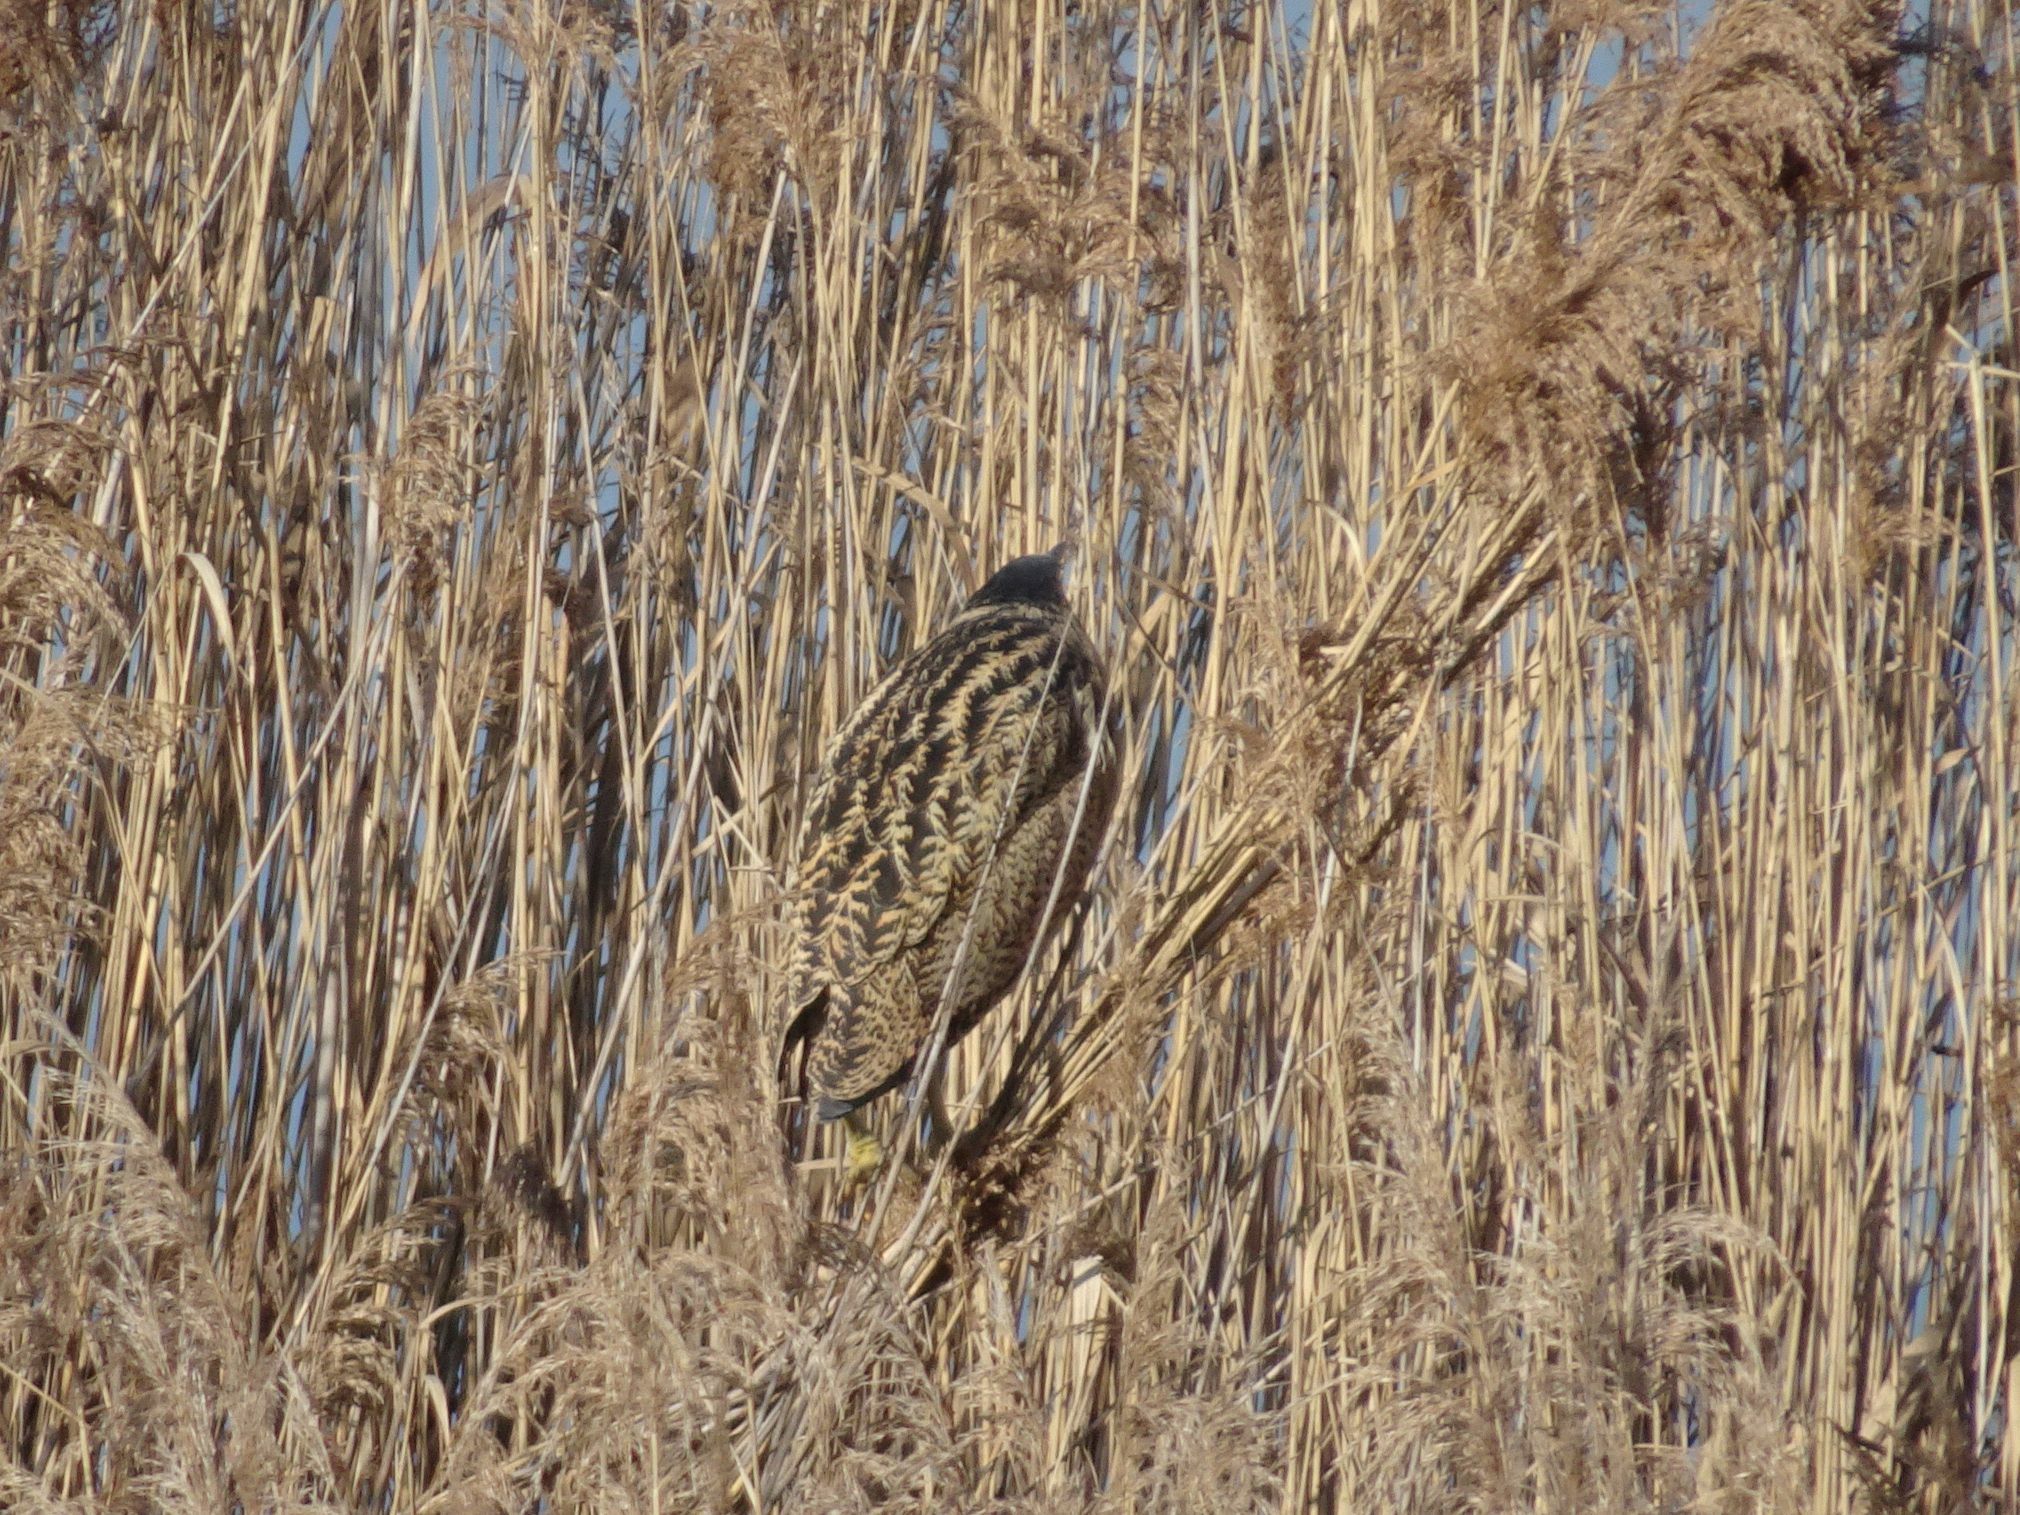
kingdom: Animalia
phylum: Chordata
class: Aves
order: Pelecaniformes
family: Ardeidae
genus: Botaurus
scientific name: Botaurus stellaris
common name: Eurasian bittern
